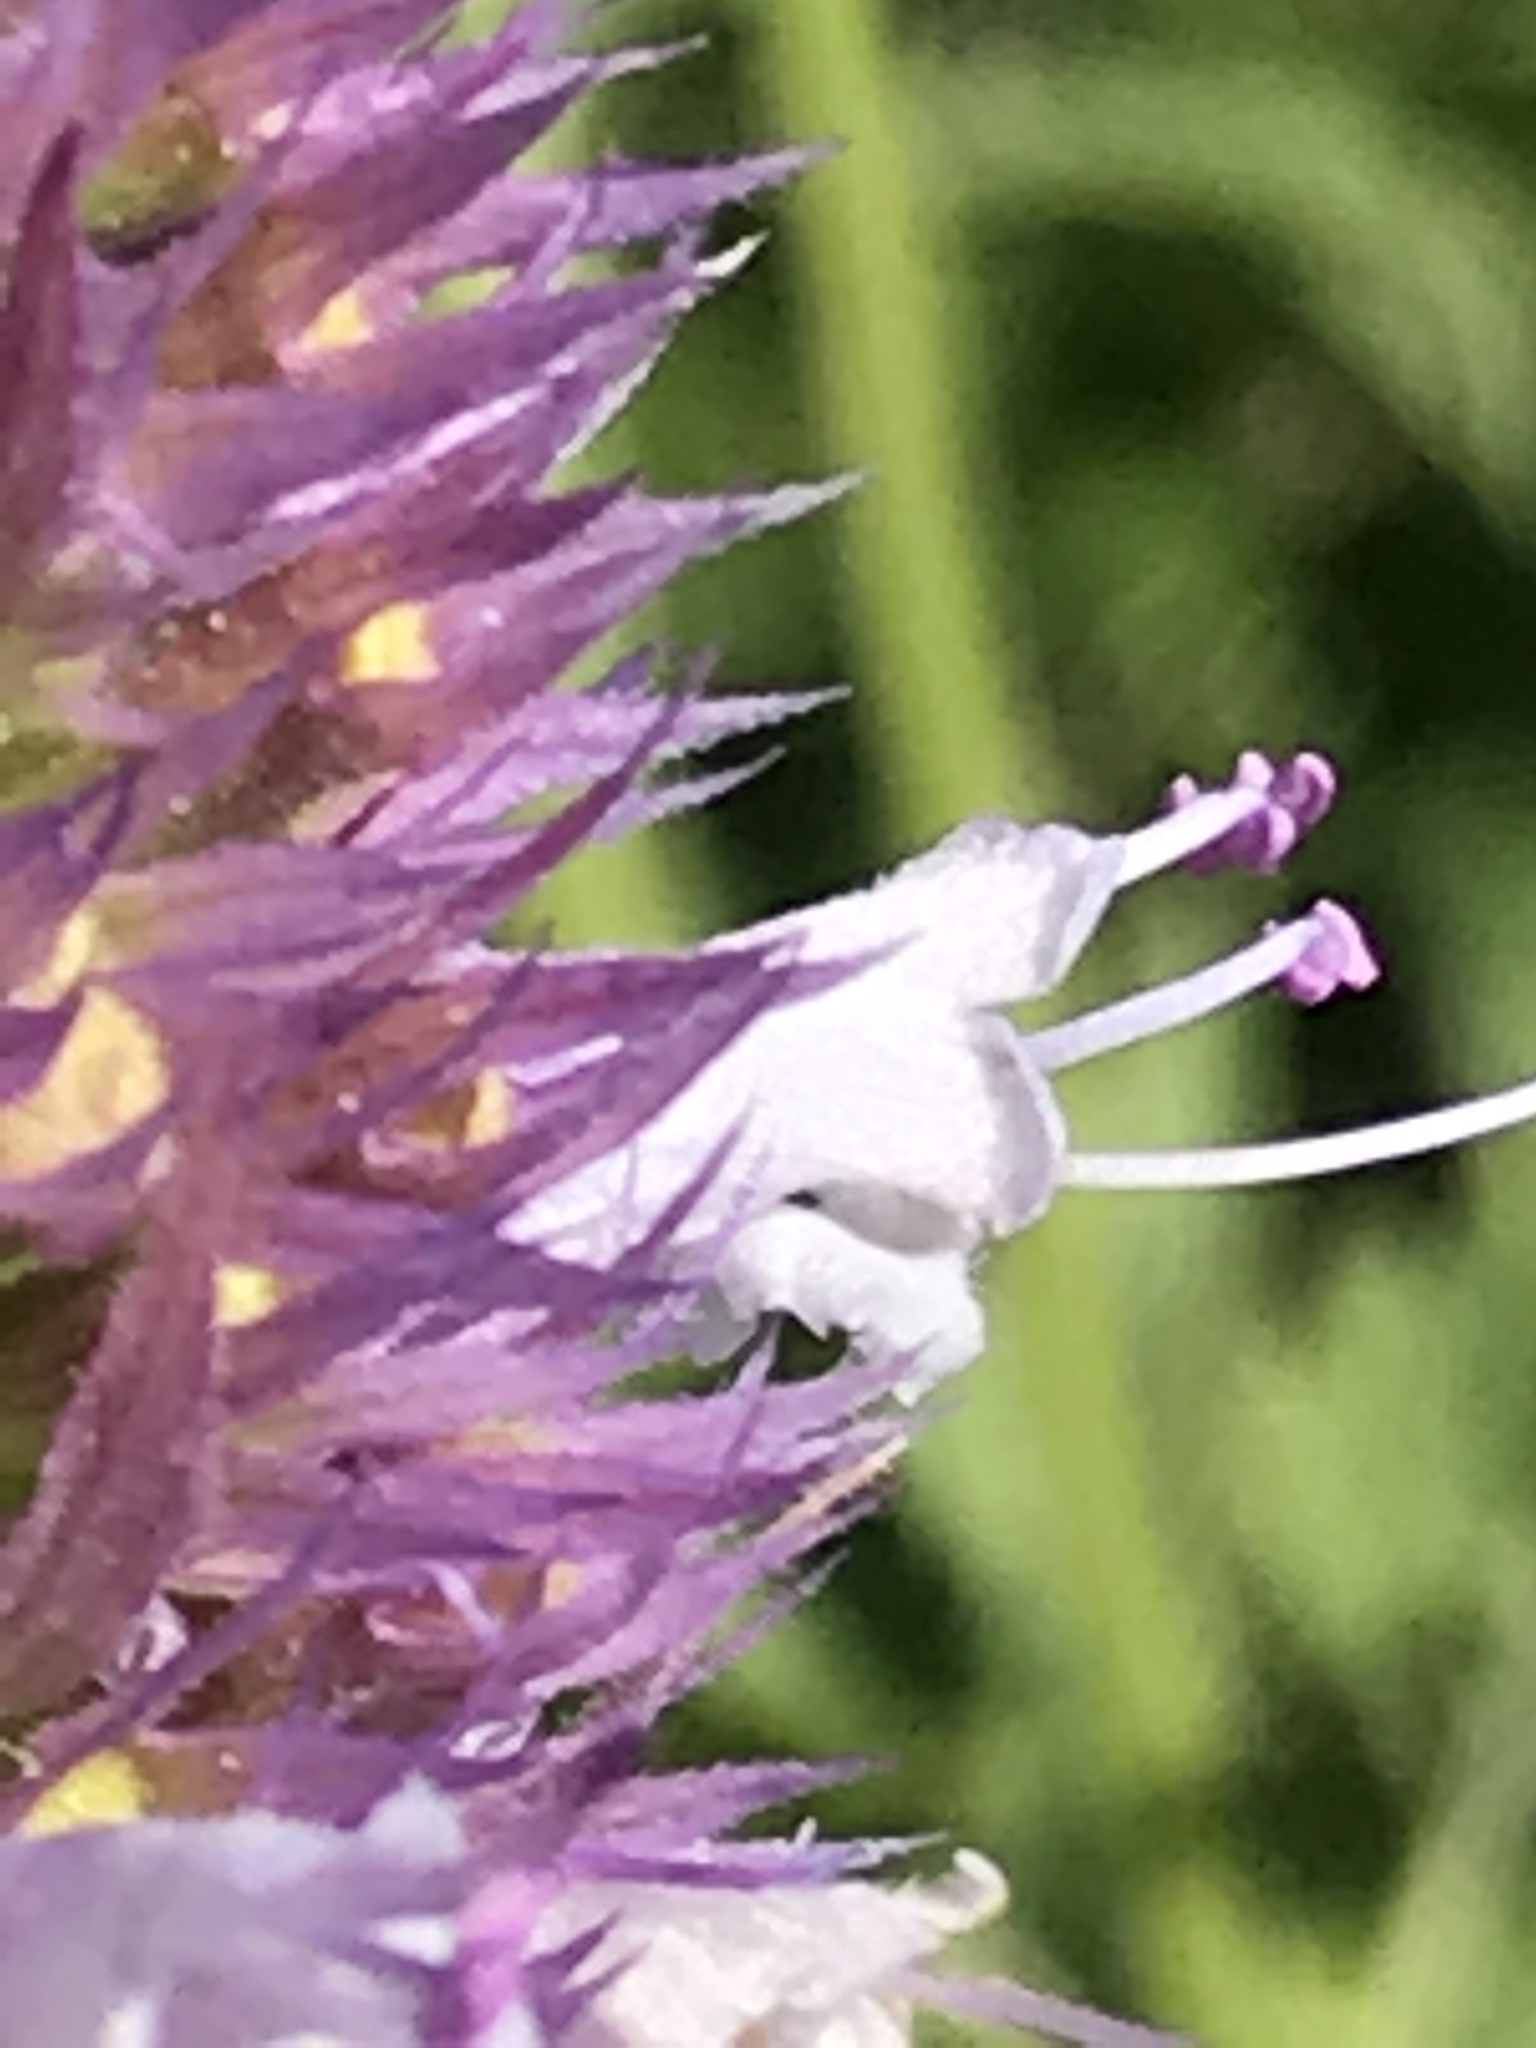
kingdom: Plantae
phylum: Tracheophyta
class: Magnoliopsida
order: Lamiales
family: Lamiaceae
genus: Agastache
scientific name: Agastache urticifolia
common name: Horsemint giant hyssop
